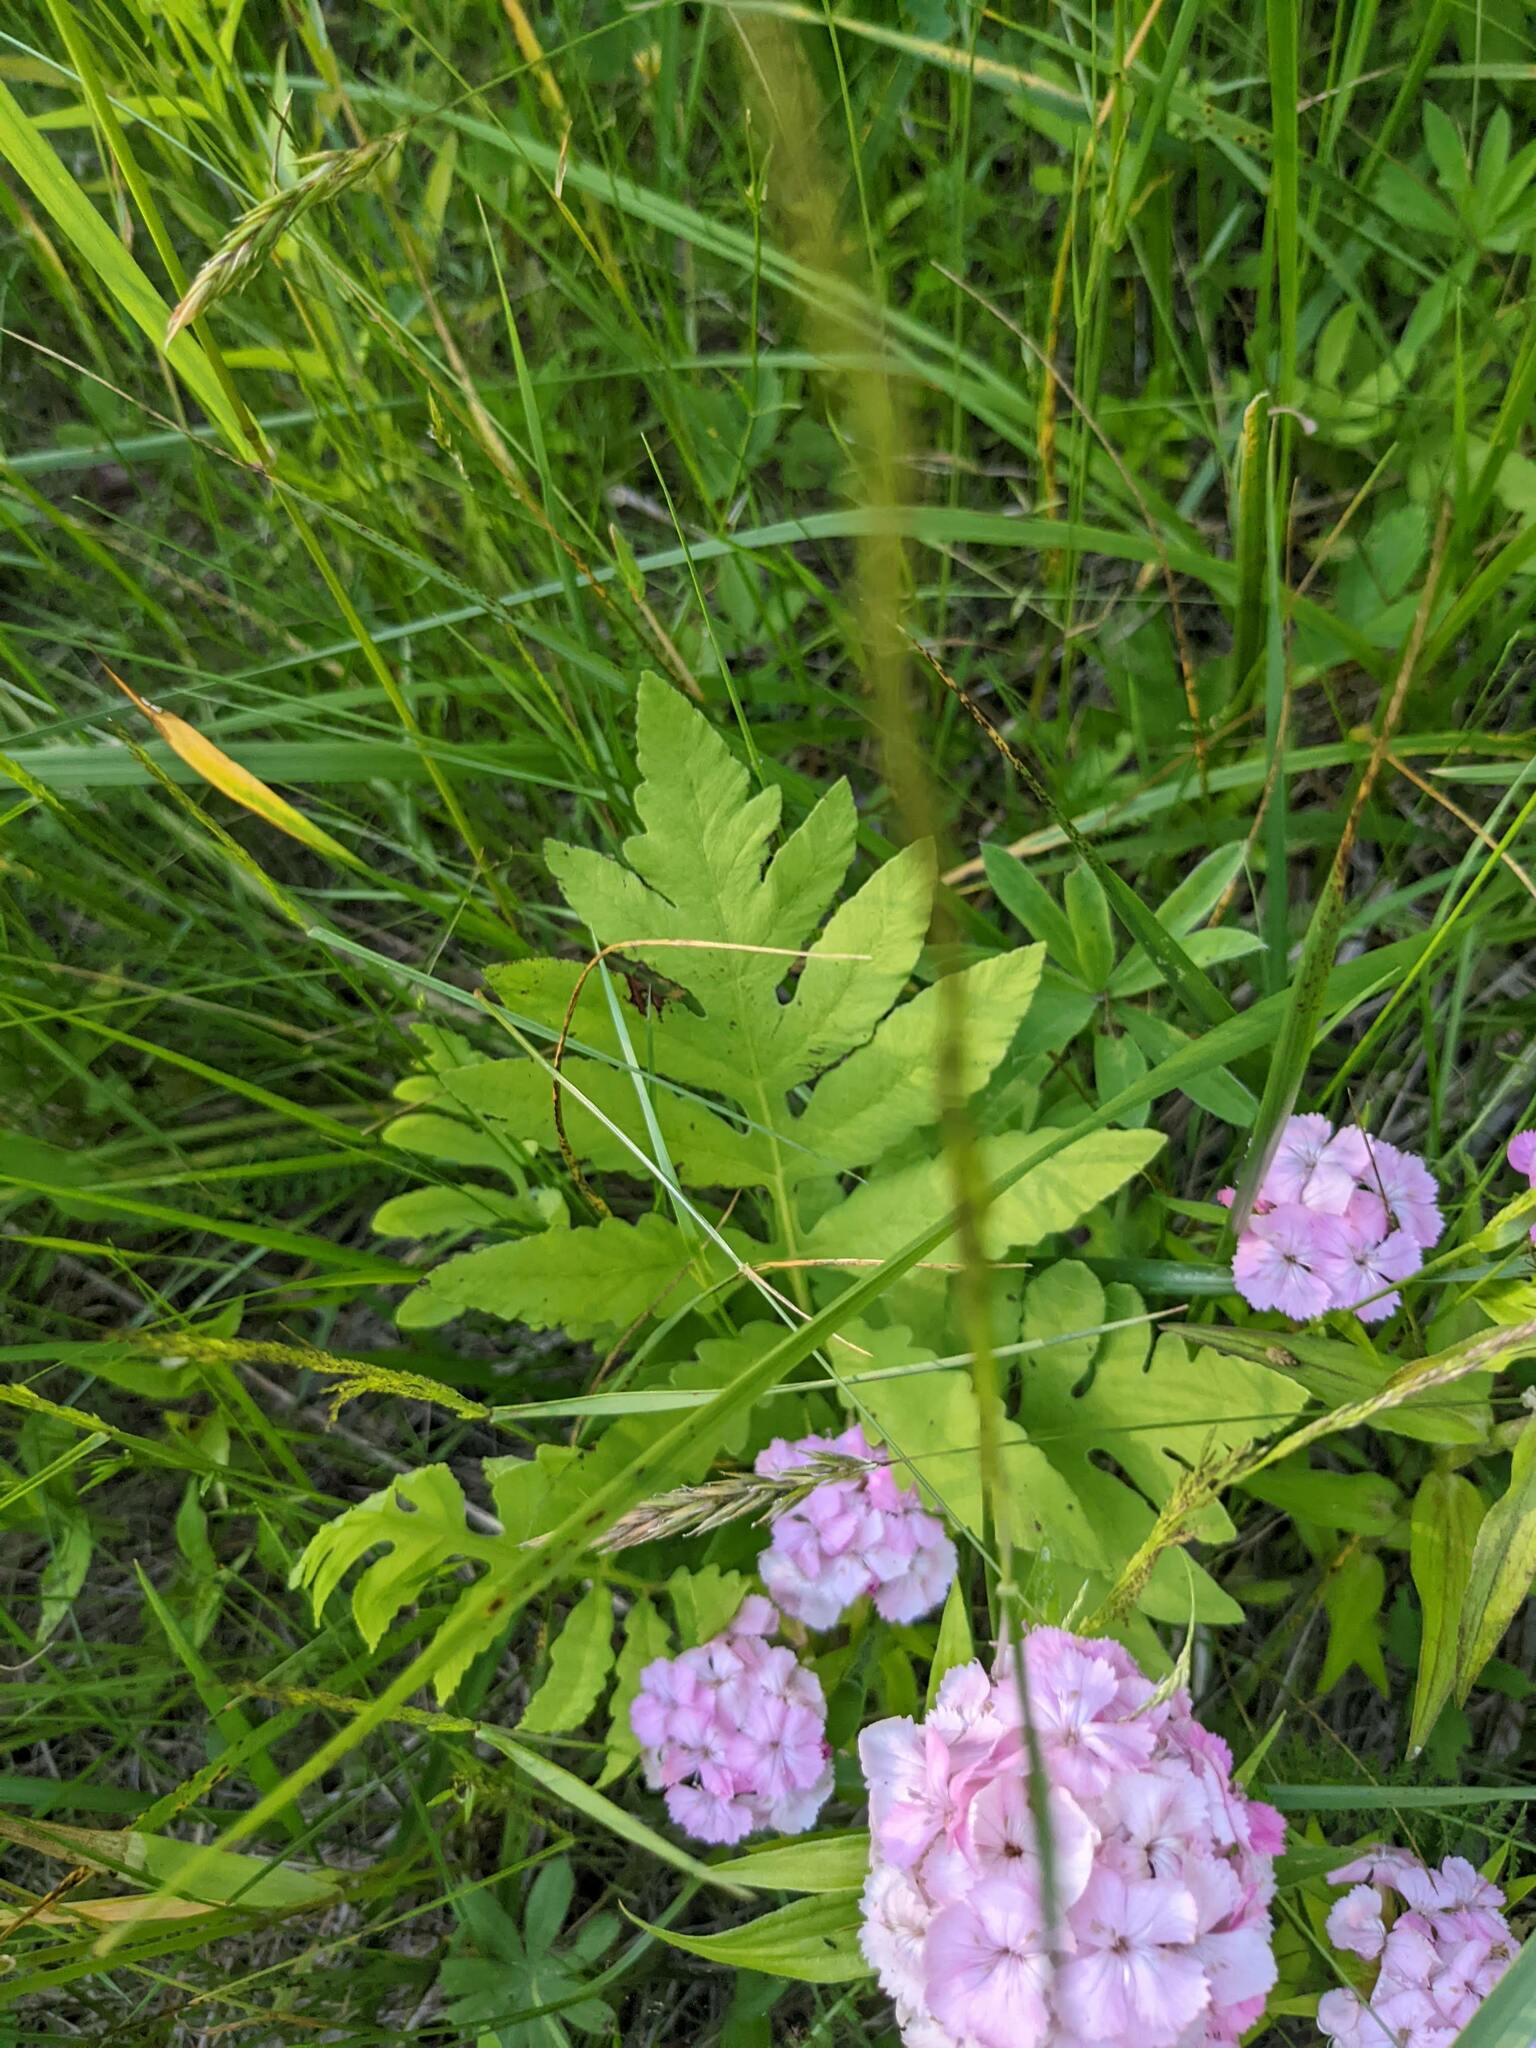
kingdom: Plantae
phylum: Tracheophyta
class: Polypodiopsida
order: Polypodiales
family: Onocleaceae
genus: Onoclea
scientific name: Onoclea sensibilis
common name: Sensitive fern
